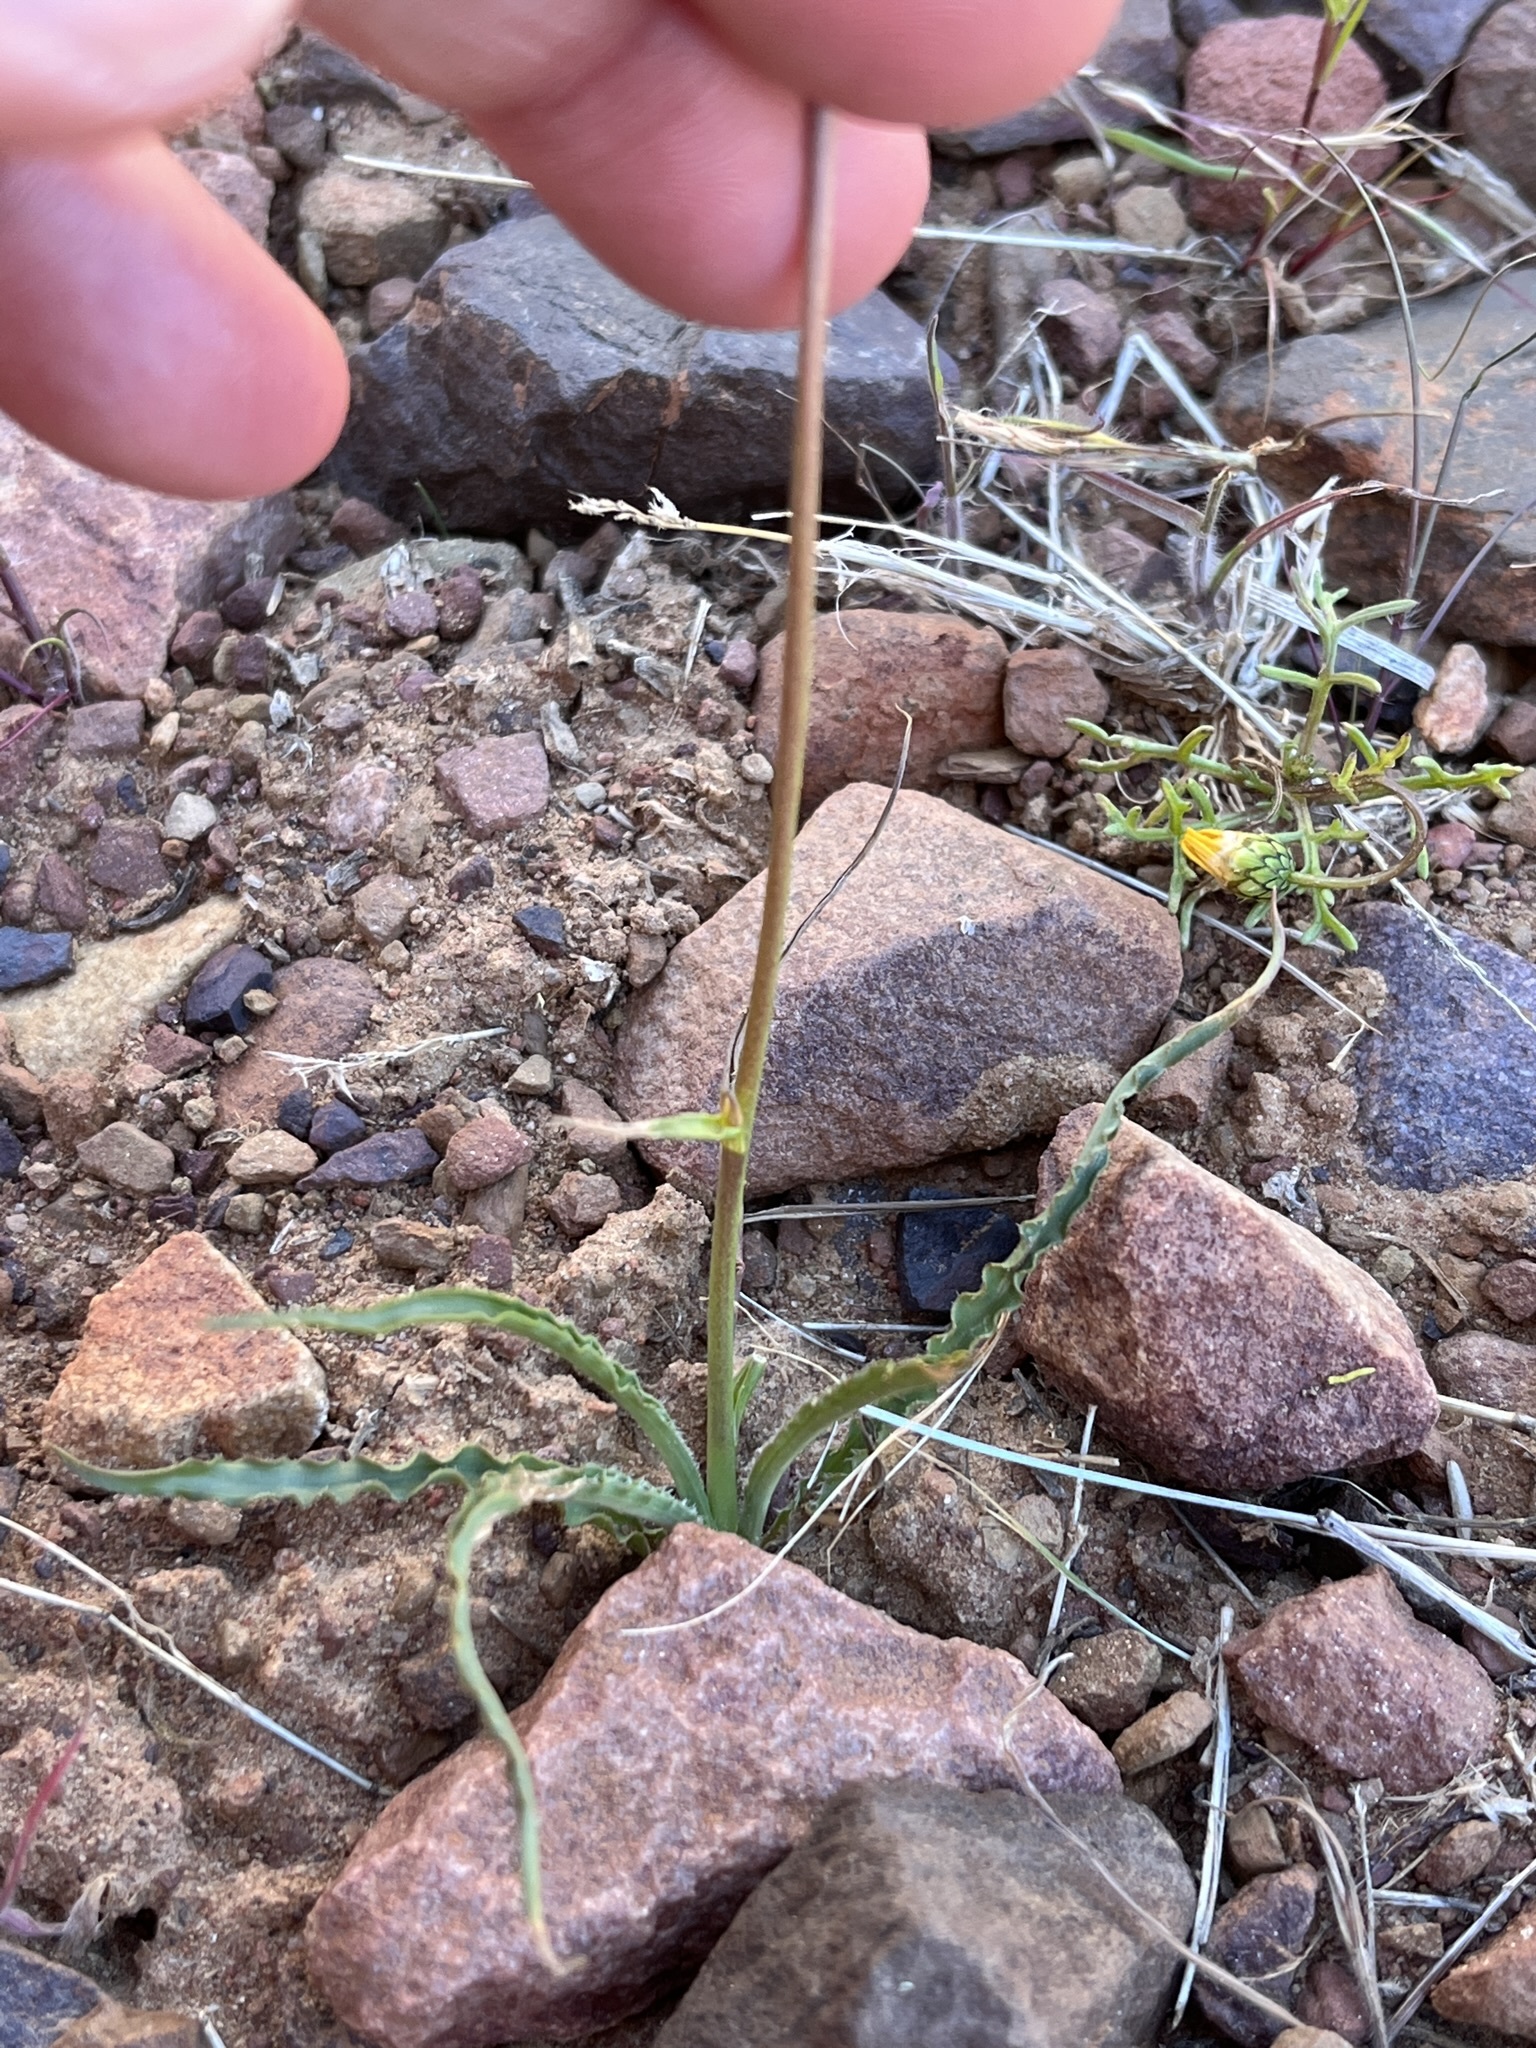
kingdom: Plantae
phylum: Tracheophyta
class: Liliopsida
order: Asparagales
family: Tecophilaeaceae
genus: Cyanella
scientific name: Cyanella pentheri
